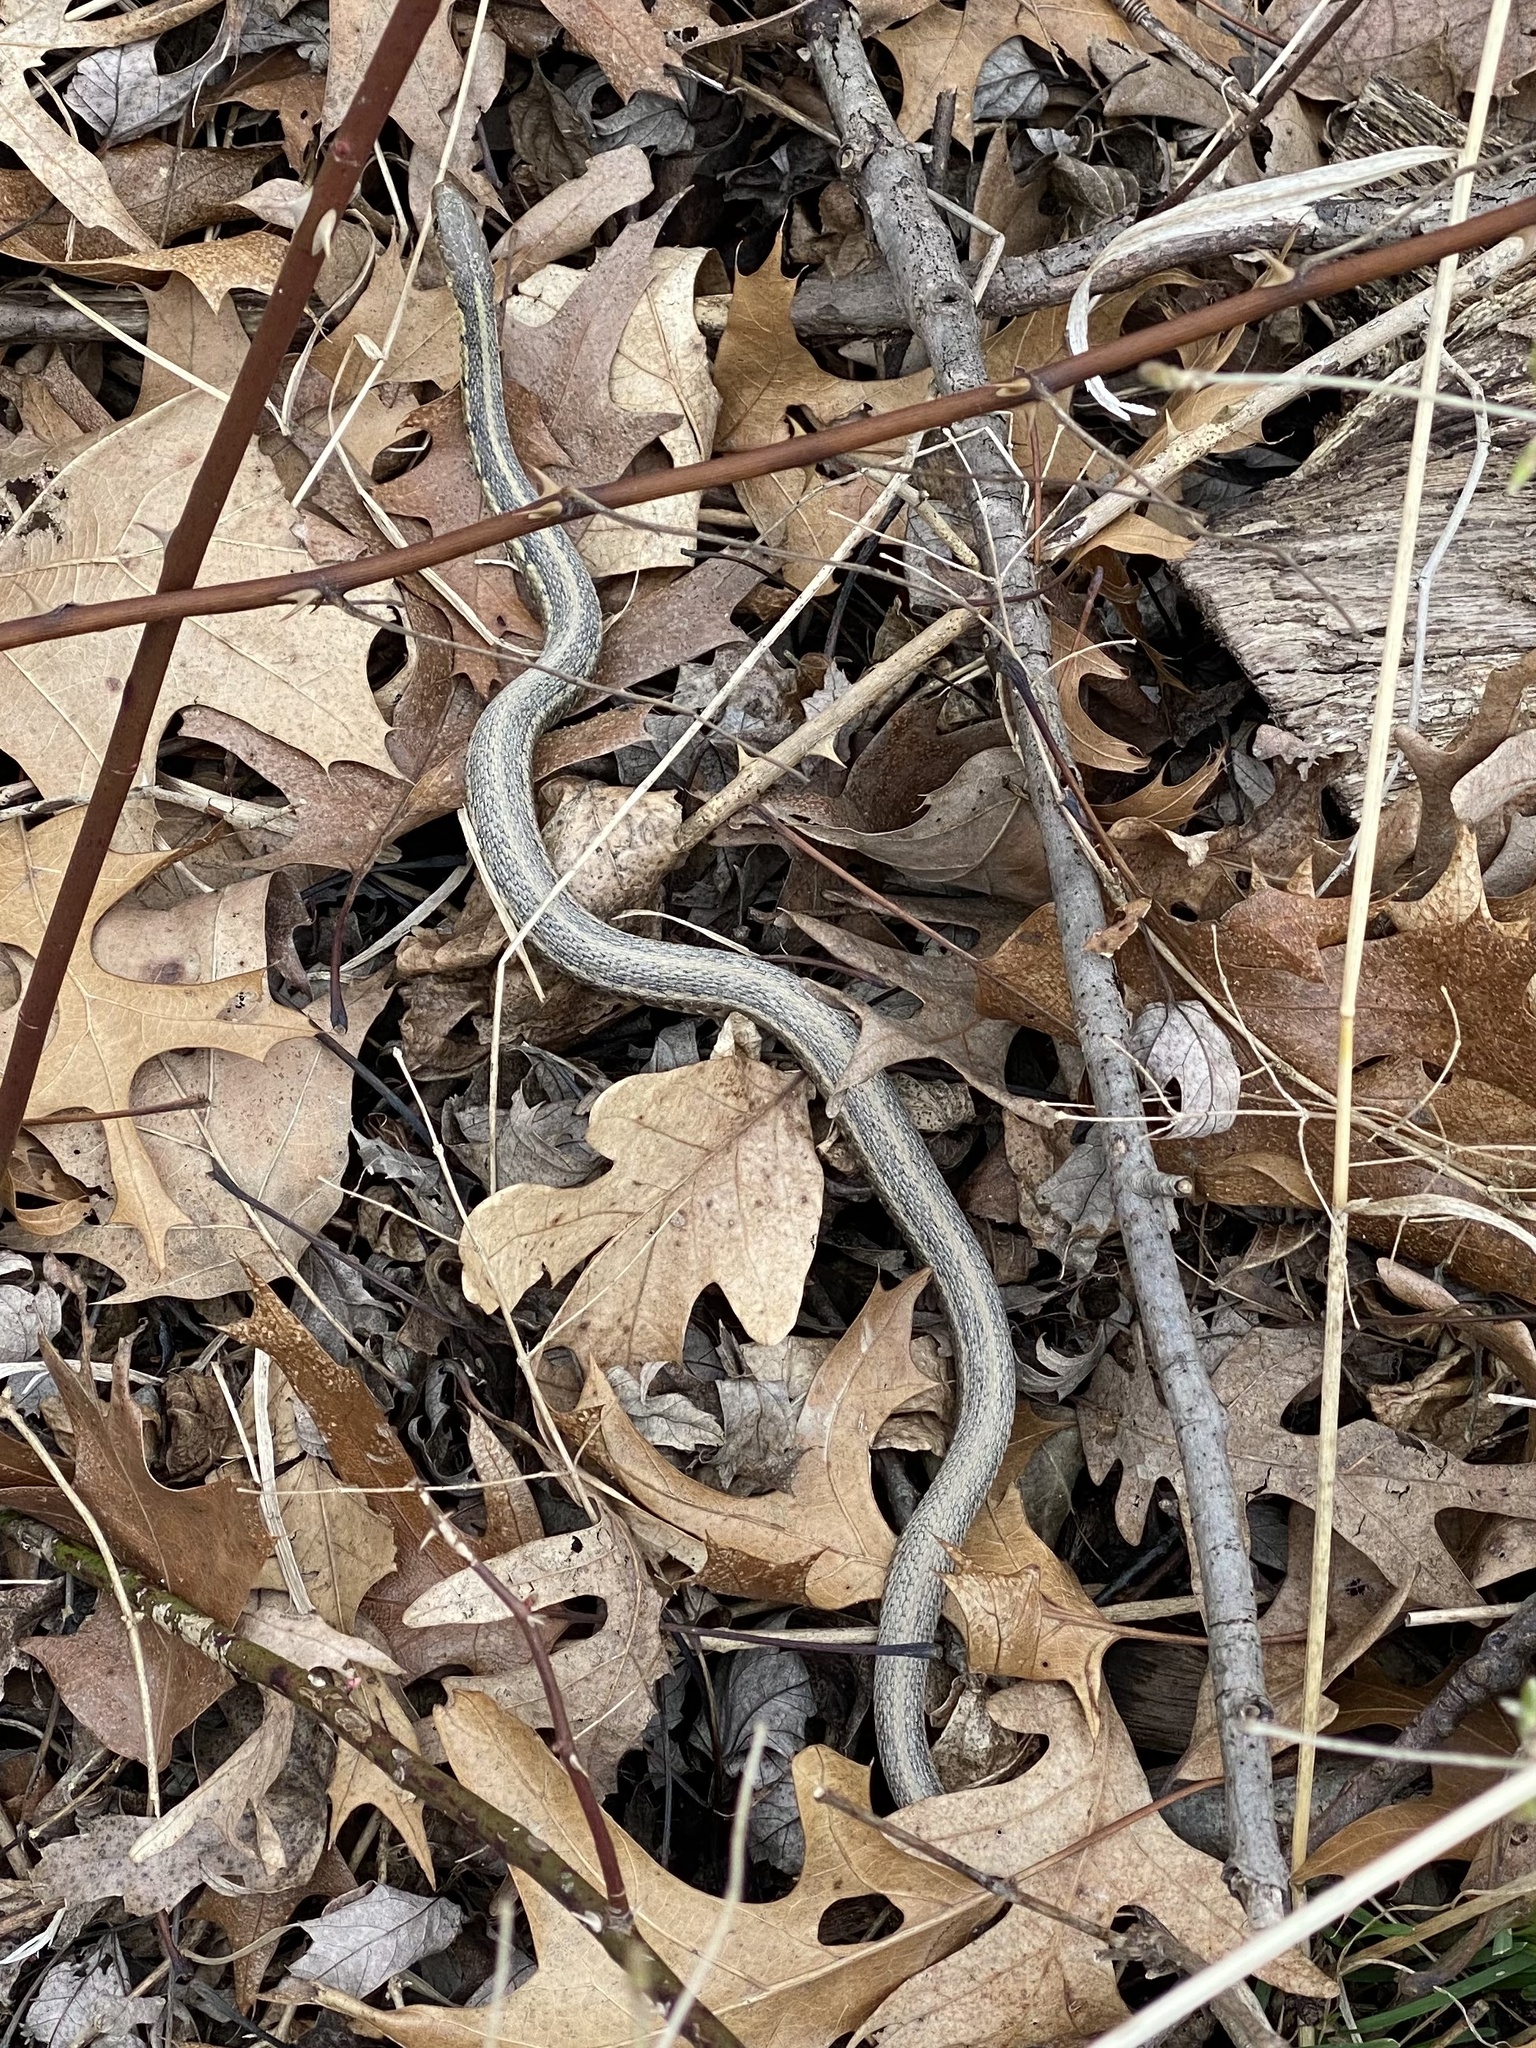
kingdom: Animalia
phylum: Chordata
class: Squamata
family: Colubridae
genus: Thamnophis
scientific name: Thamnophis sirtalis
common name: Common garter snake
